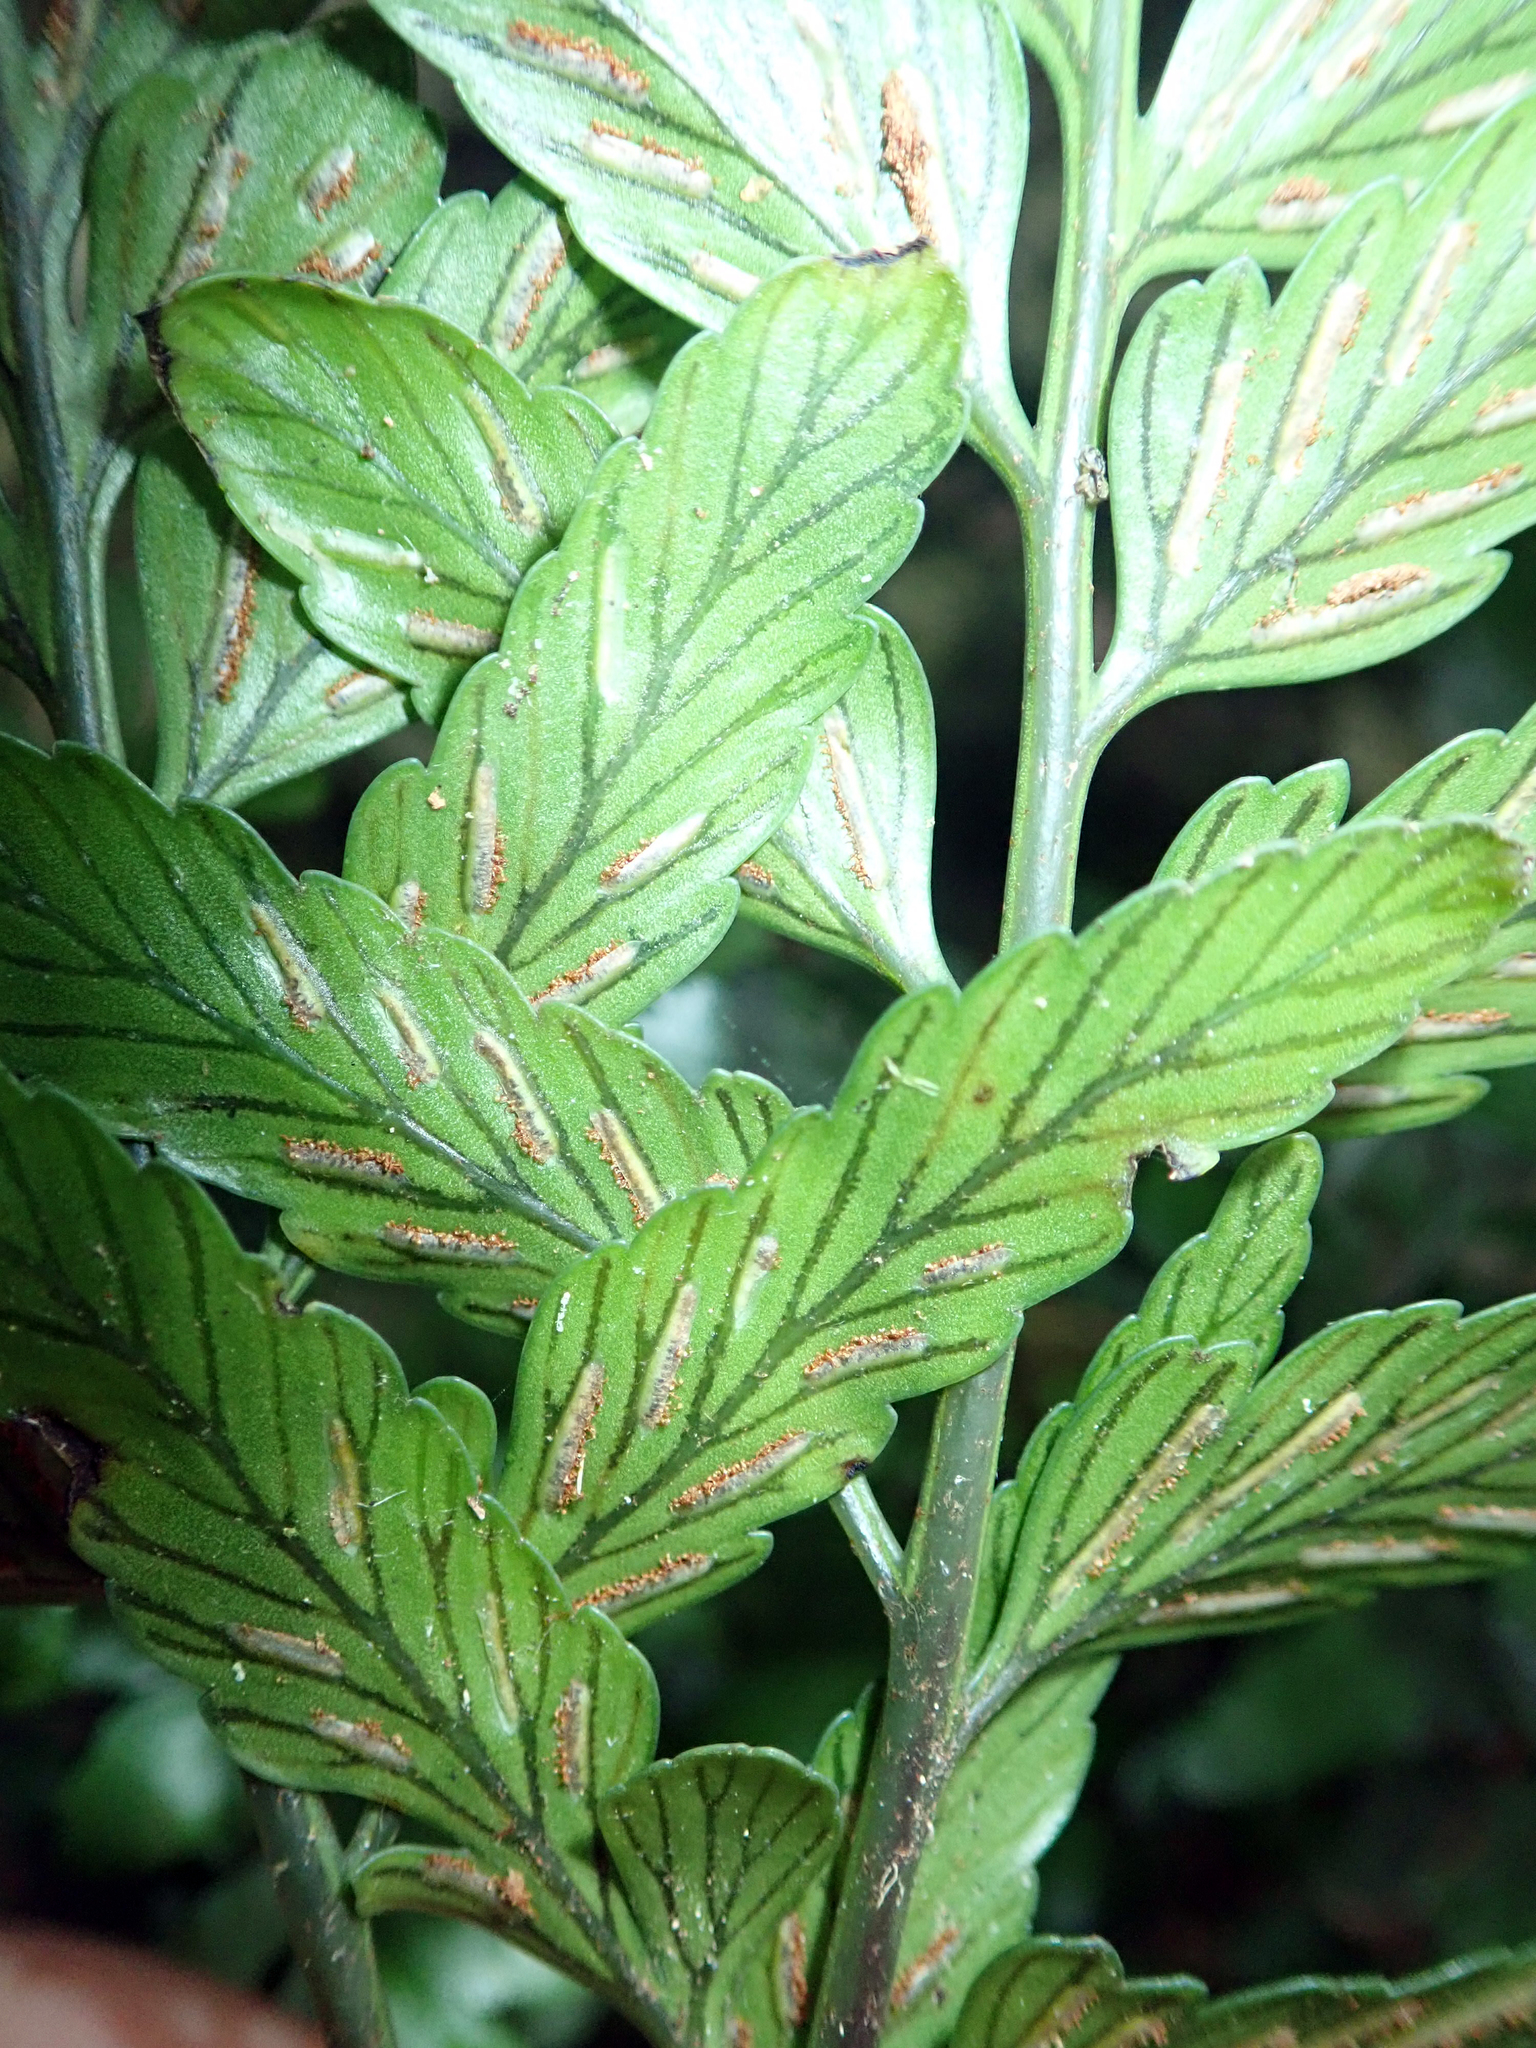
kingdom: Plantae
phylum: Tracheophyta
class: Polypodiopsida
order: Polypodiales
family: Aspleniaceae
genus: Asplenium
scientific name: Asplenium lyallii
